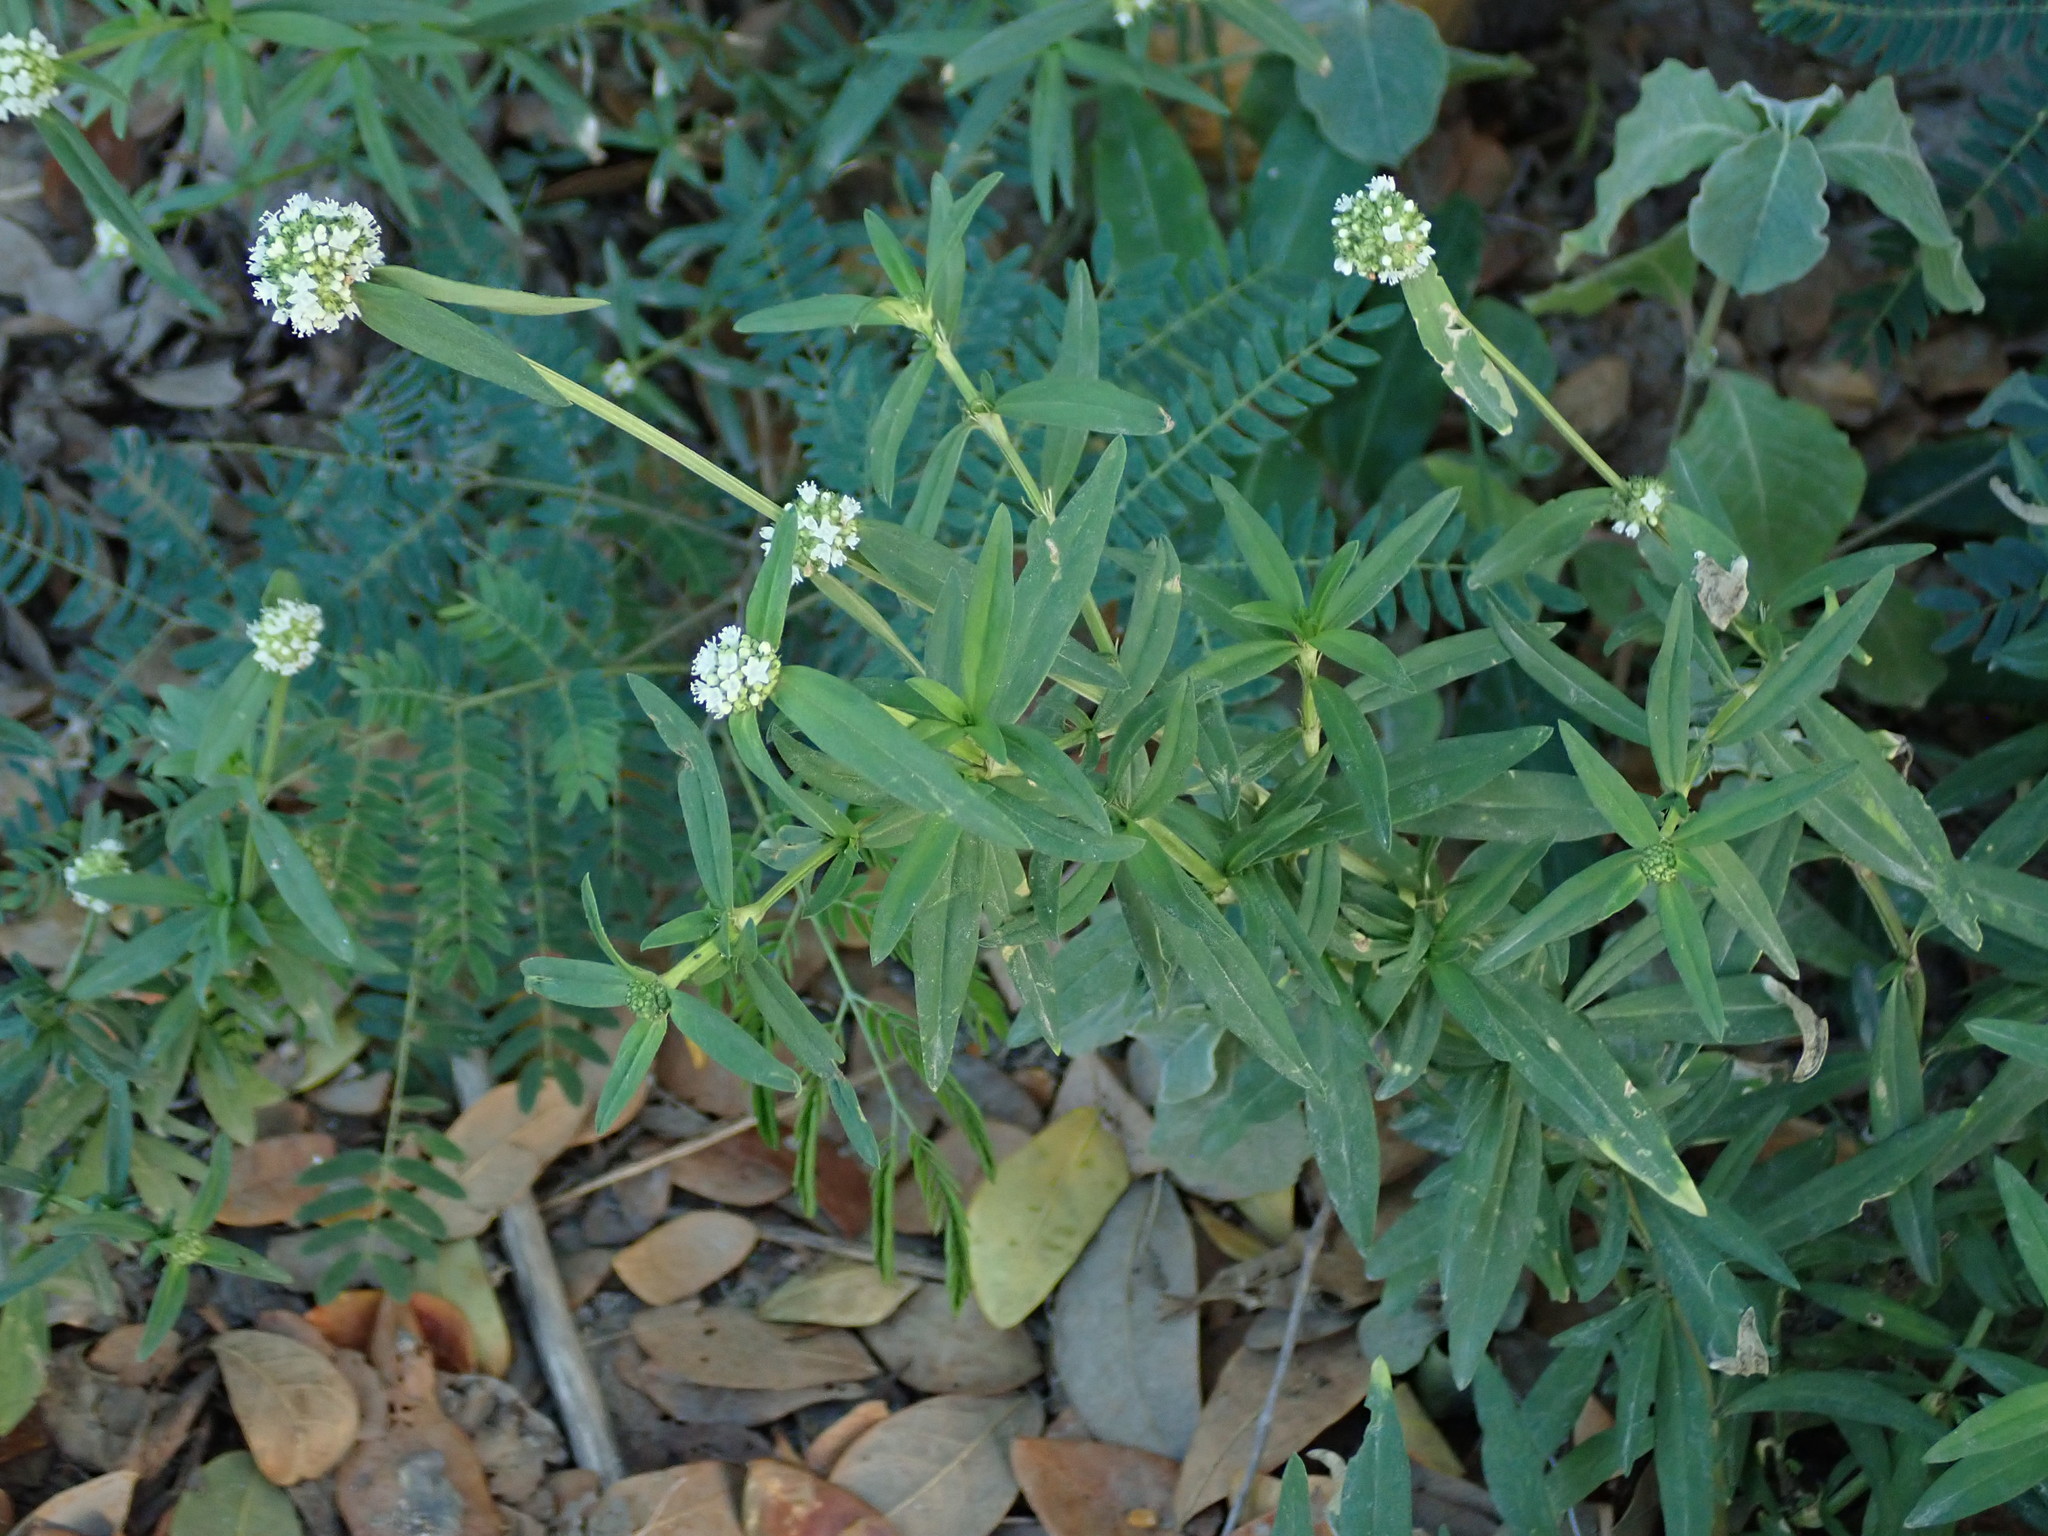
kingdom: Plantae
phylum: Tracheophyta
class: Magnoliopsida
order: Gentianales
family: Rubiaceae
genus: Spermacoce
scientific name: Spermacoce verticillata
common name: Shrubby false buttonweed
